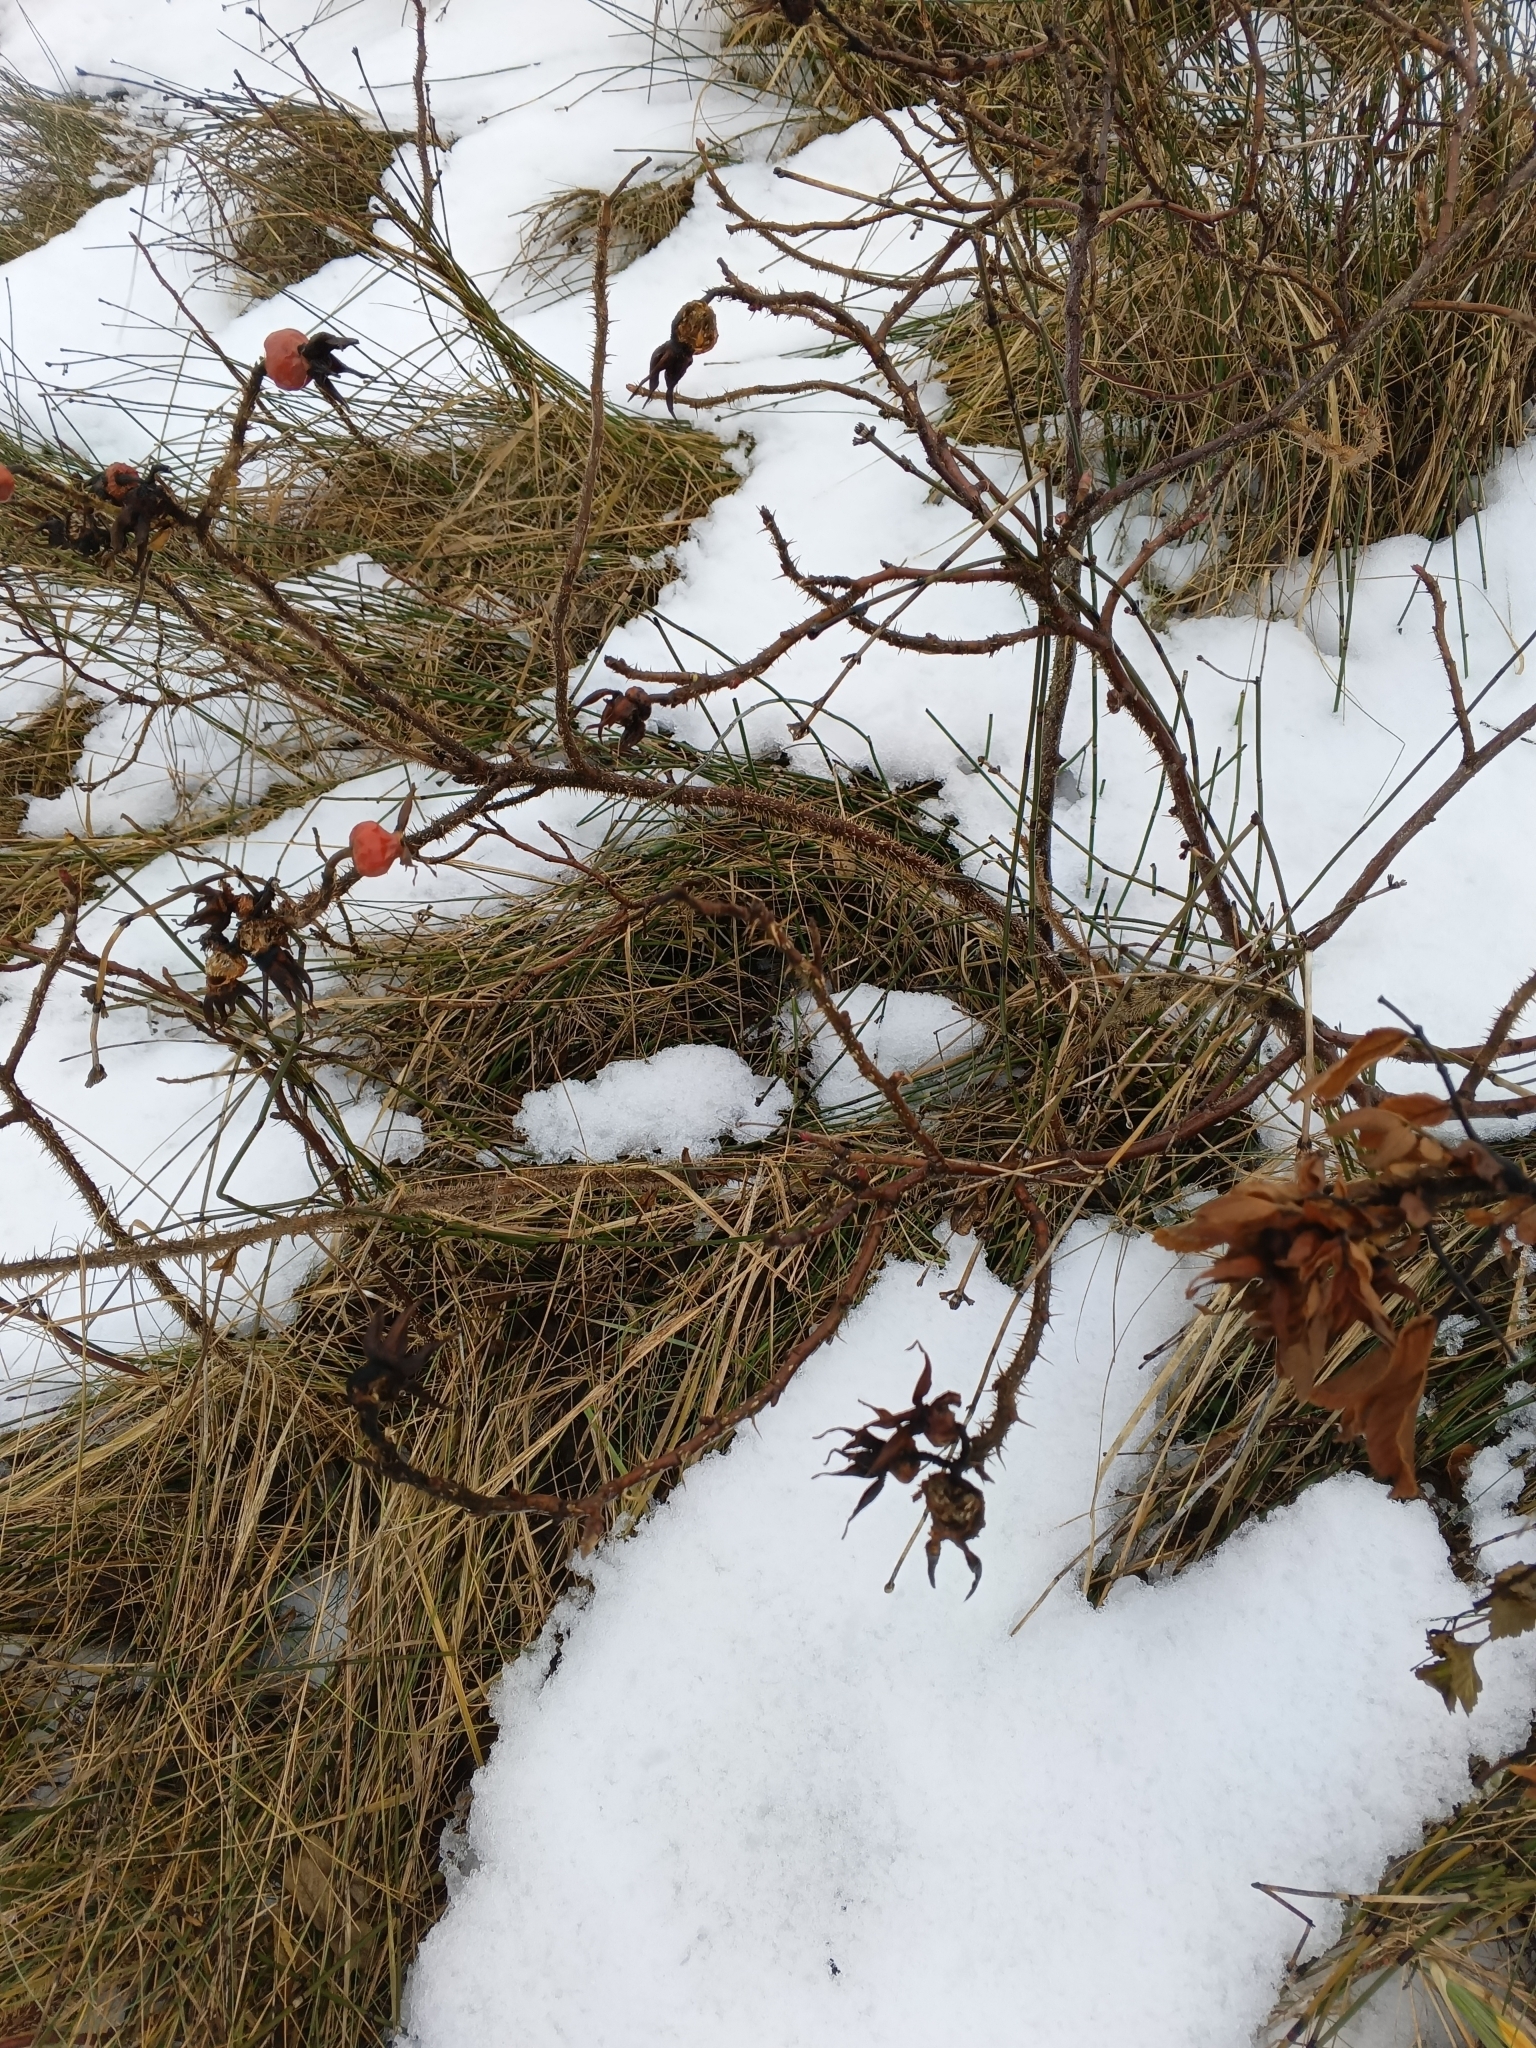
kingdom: Plantae
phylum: Tracheophyta
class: Magnoliopsida
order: Rosales
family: Rosaceae
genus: Rosa
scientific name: Rosa rugosa
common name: Japanese rose
